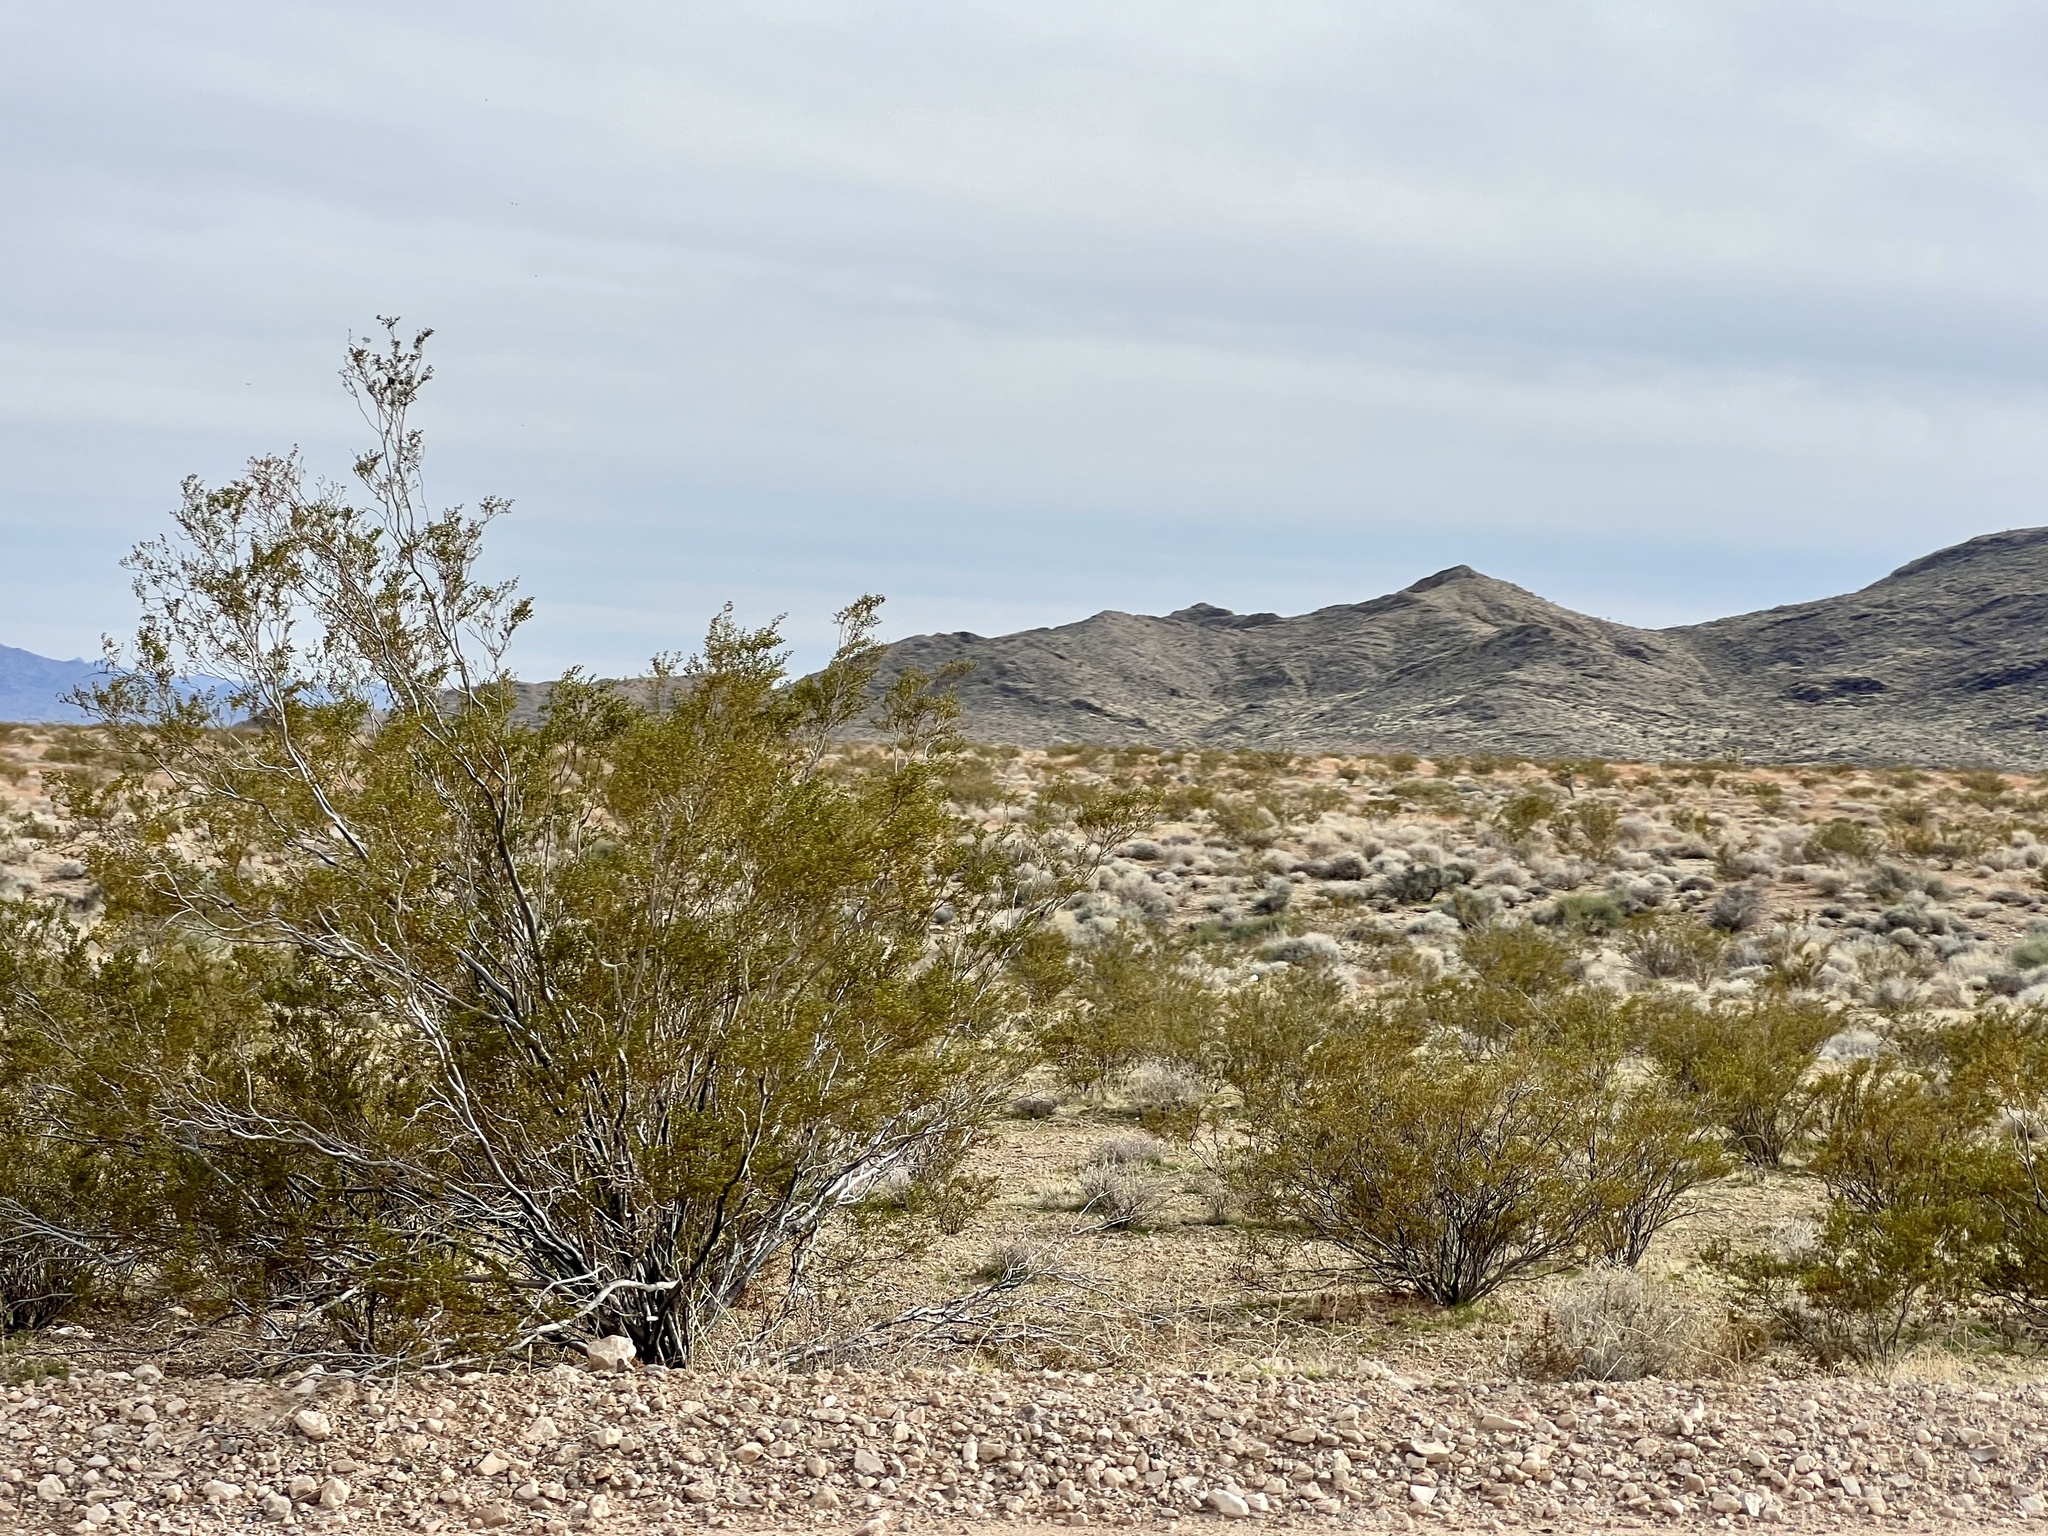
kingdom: Plantae
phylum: Tracheophyta
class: Magnoliopsida
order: Zygophyllales
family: Zygophyllaceae
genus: Larrea
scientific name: Larrea tridentata
